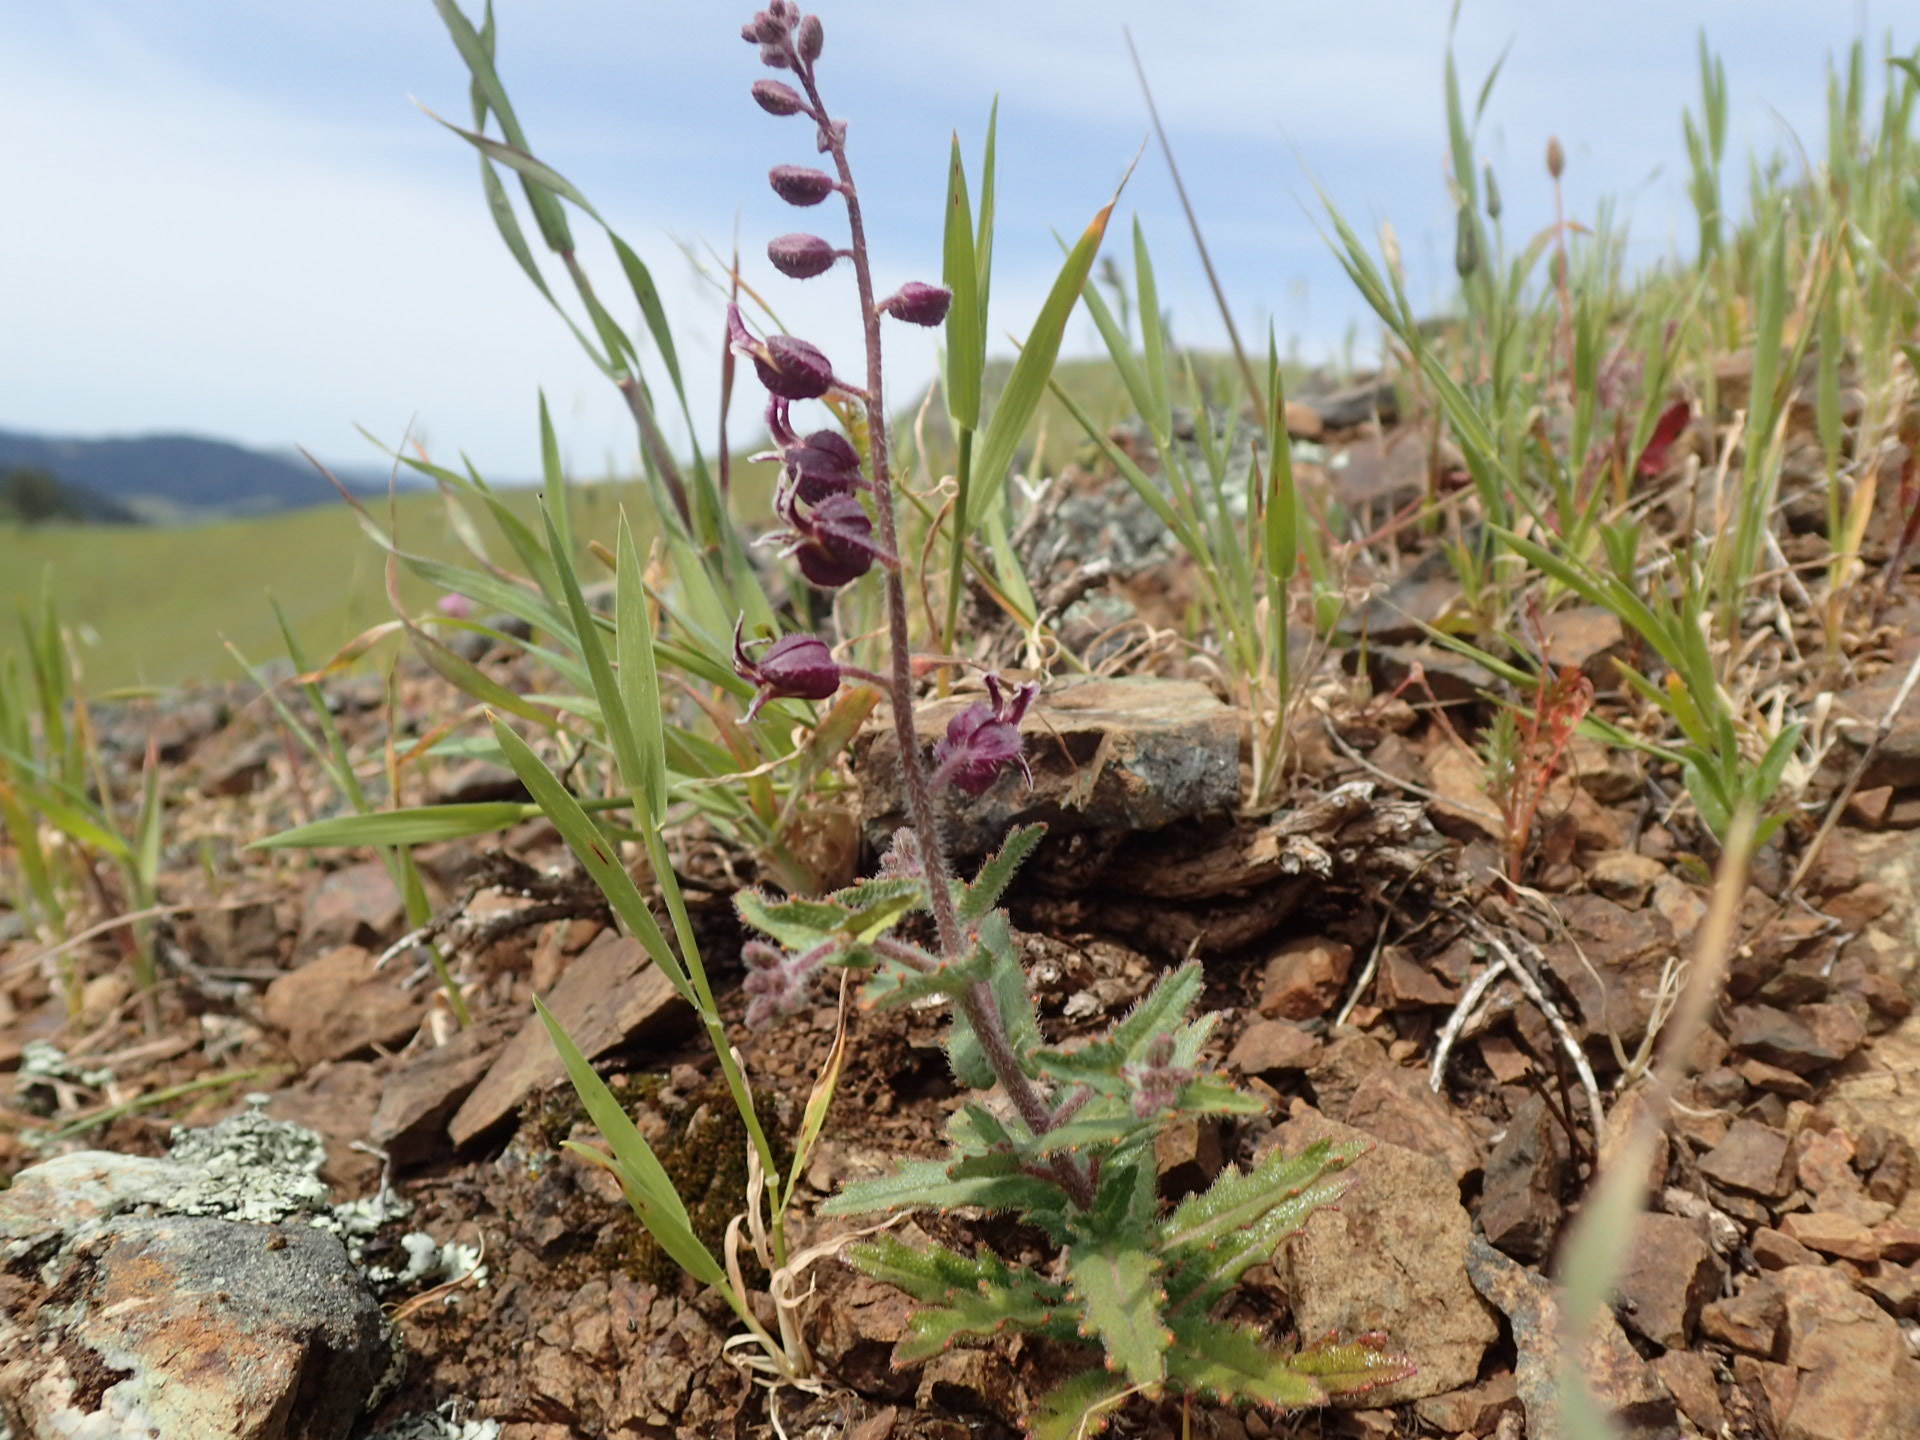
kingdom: Plantae
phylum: Tracheophyta
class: Magnoliopsida
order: Brassicales
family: Brassicaceae
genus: Streptanthus
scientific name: Streptanthus glandulosus
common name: Jewel-flower
